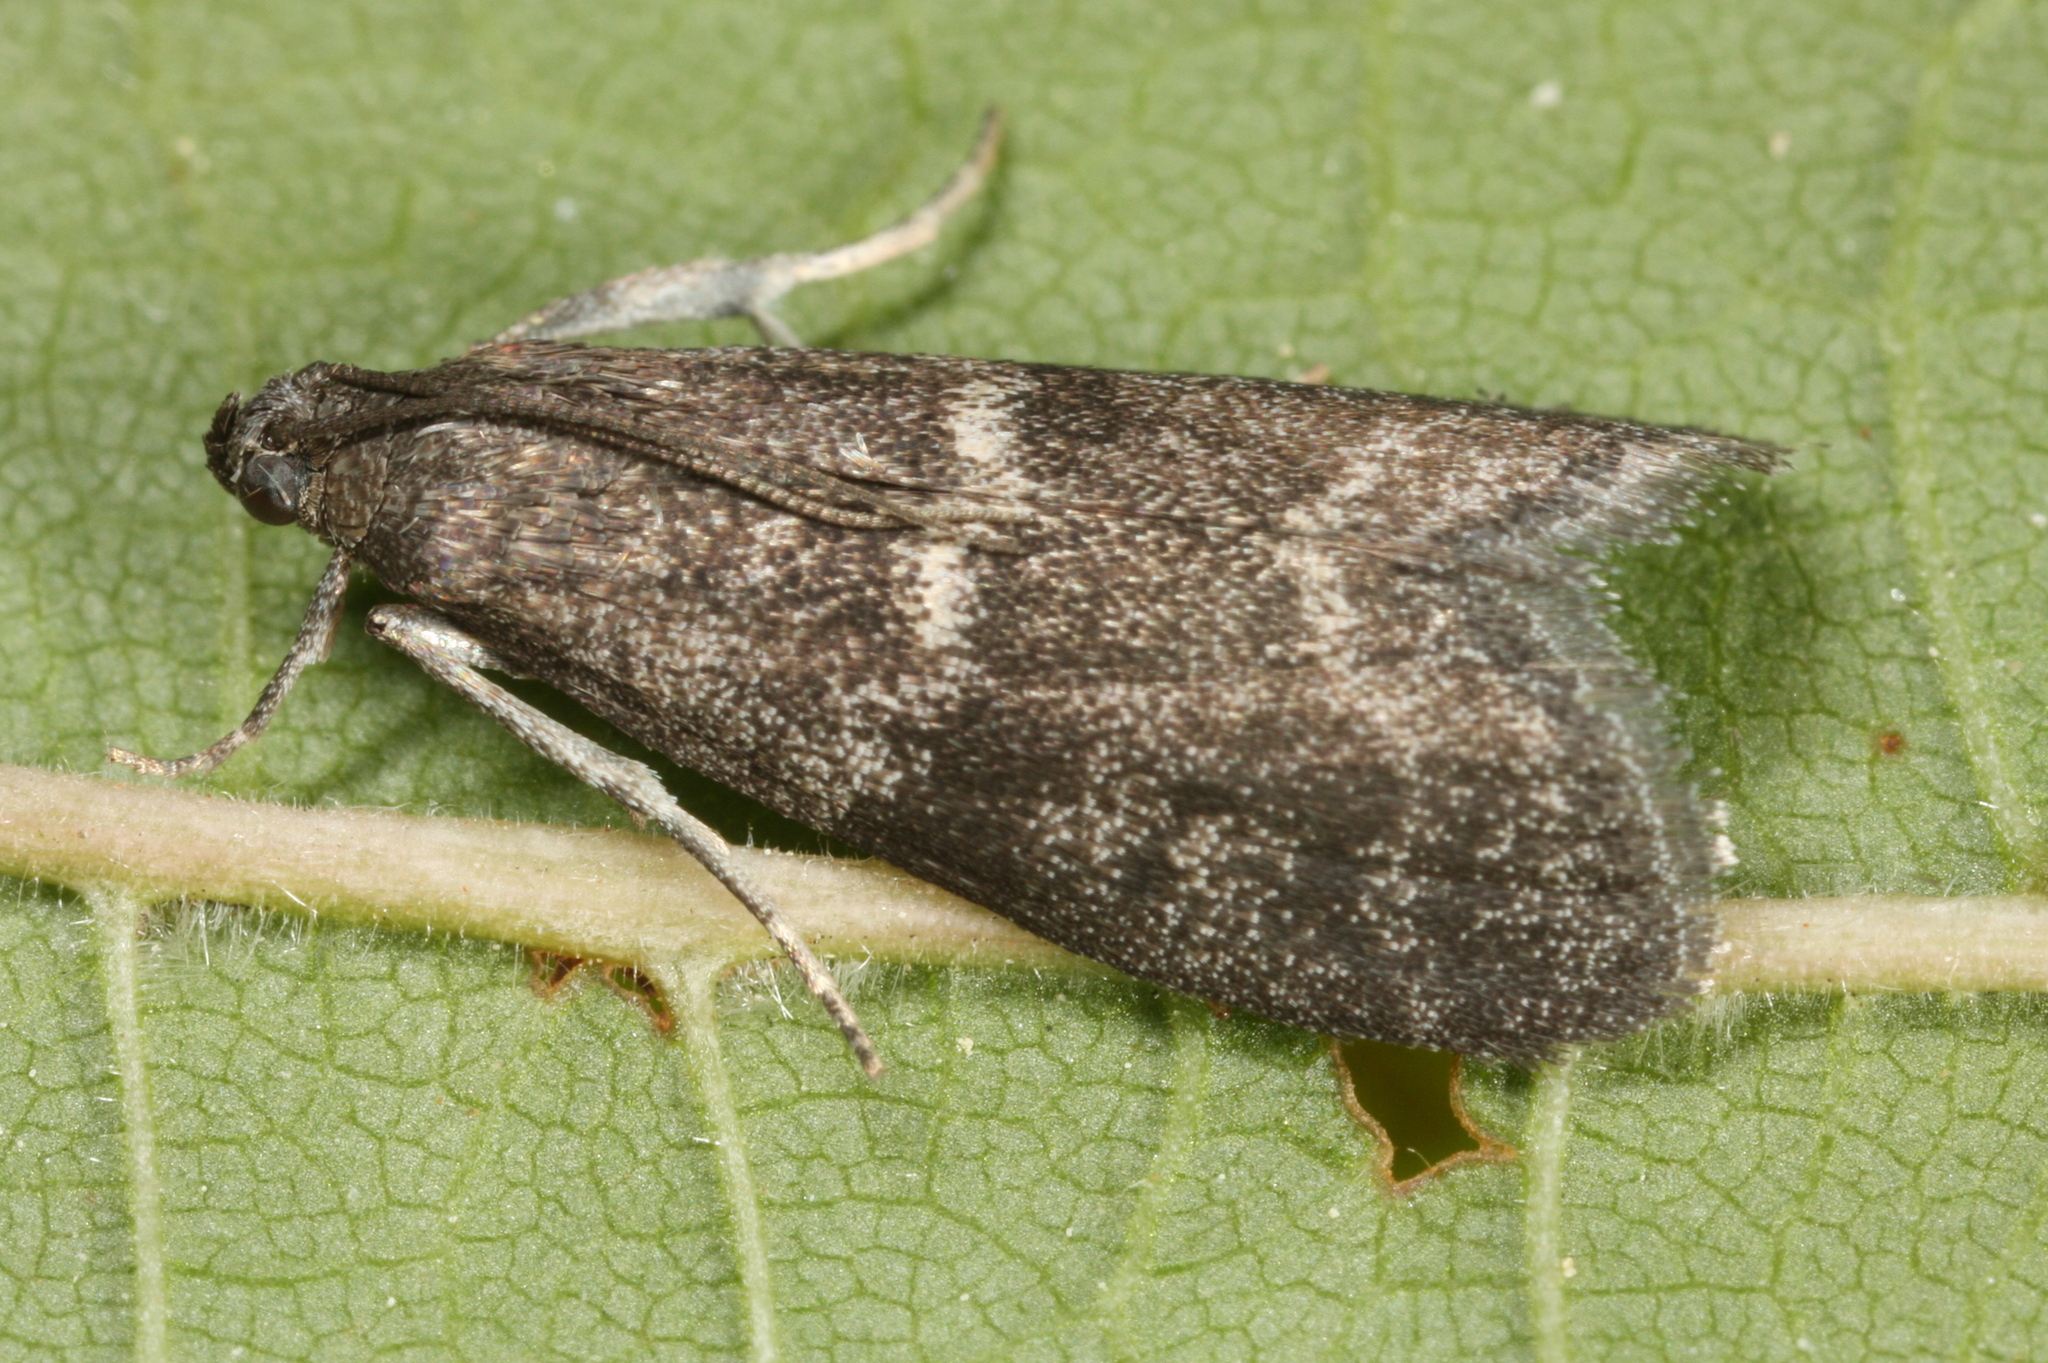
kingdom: Animalia
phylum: Arthropoda
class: Insecta
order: Lepidoptera
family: Pyralidae
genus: Apomyelois
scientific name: Apomyelois bistriatella
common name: Heath knot-horn
